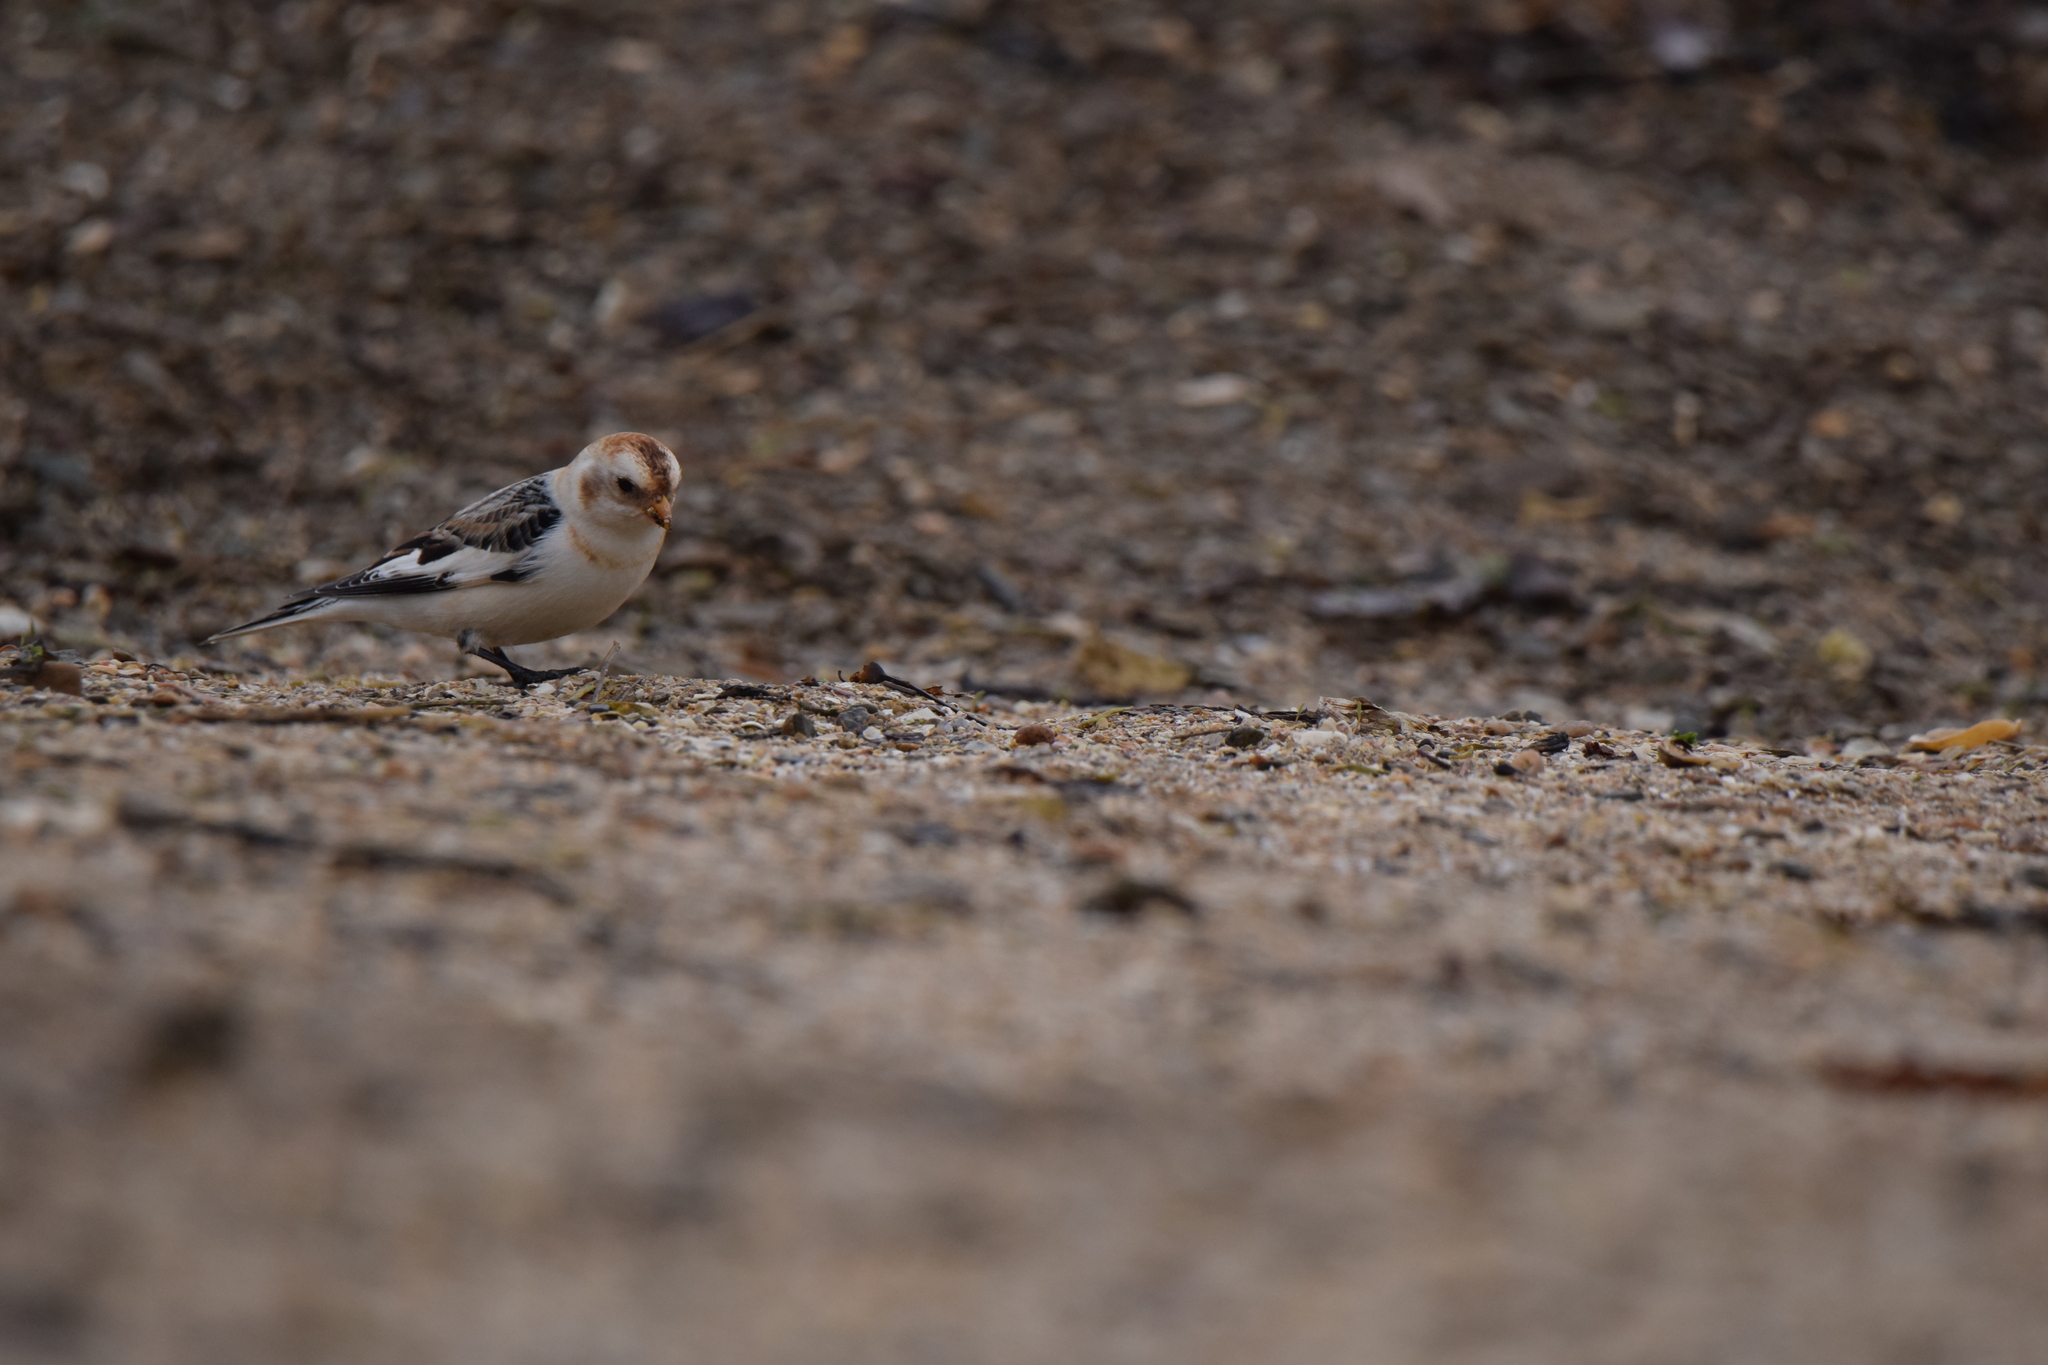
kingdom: Animalia
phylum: Chordata
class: Aves
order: Passeriformes
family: Calcariidae
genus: Plectrophenax
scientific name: Plectrophenax nivalis
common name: Snow bunting
